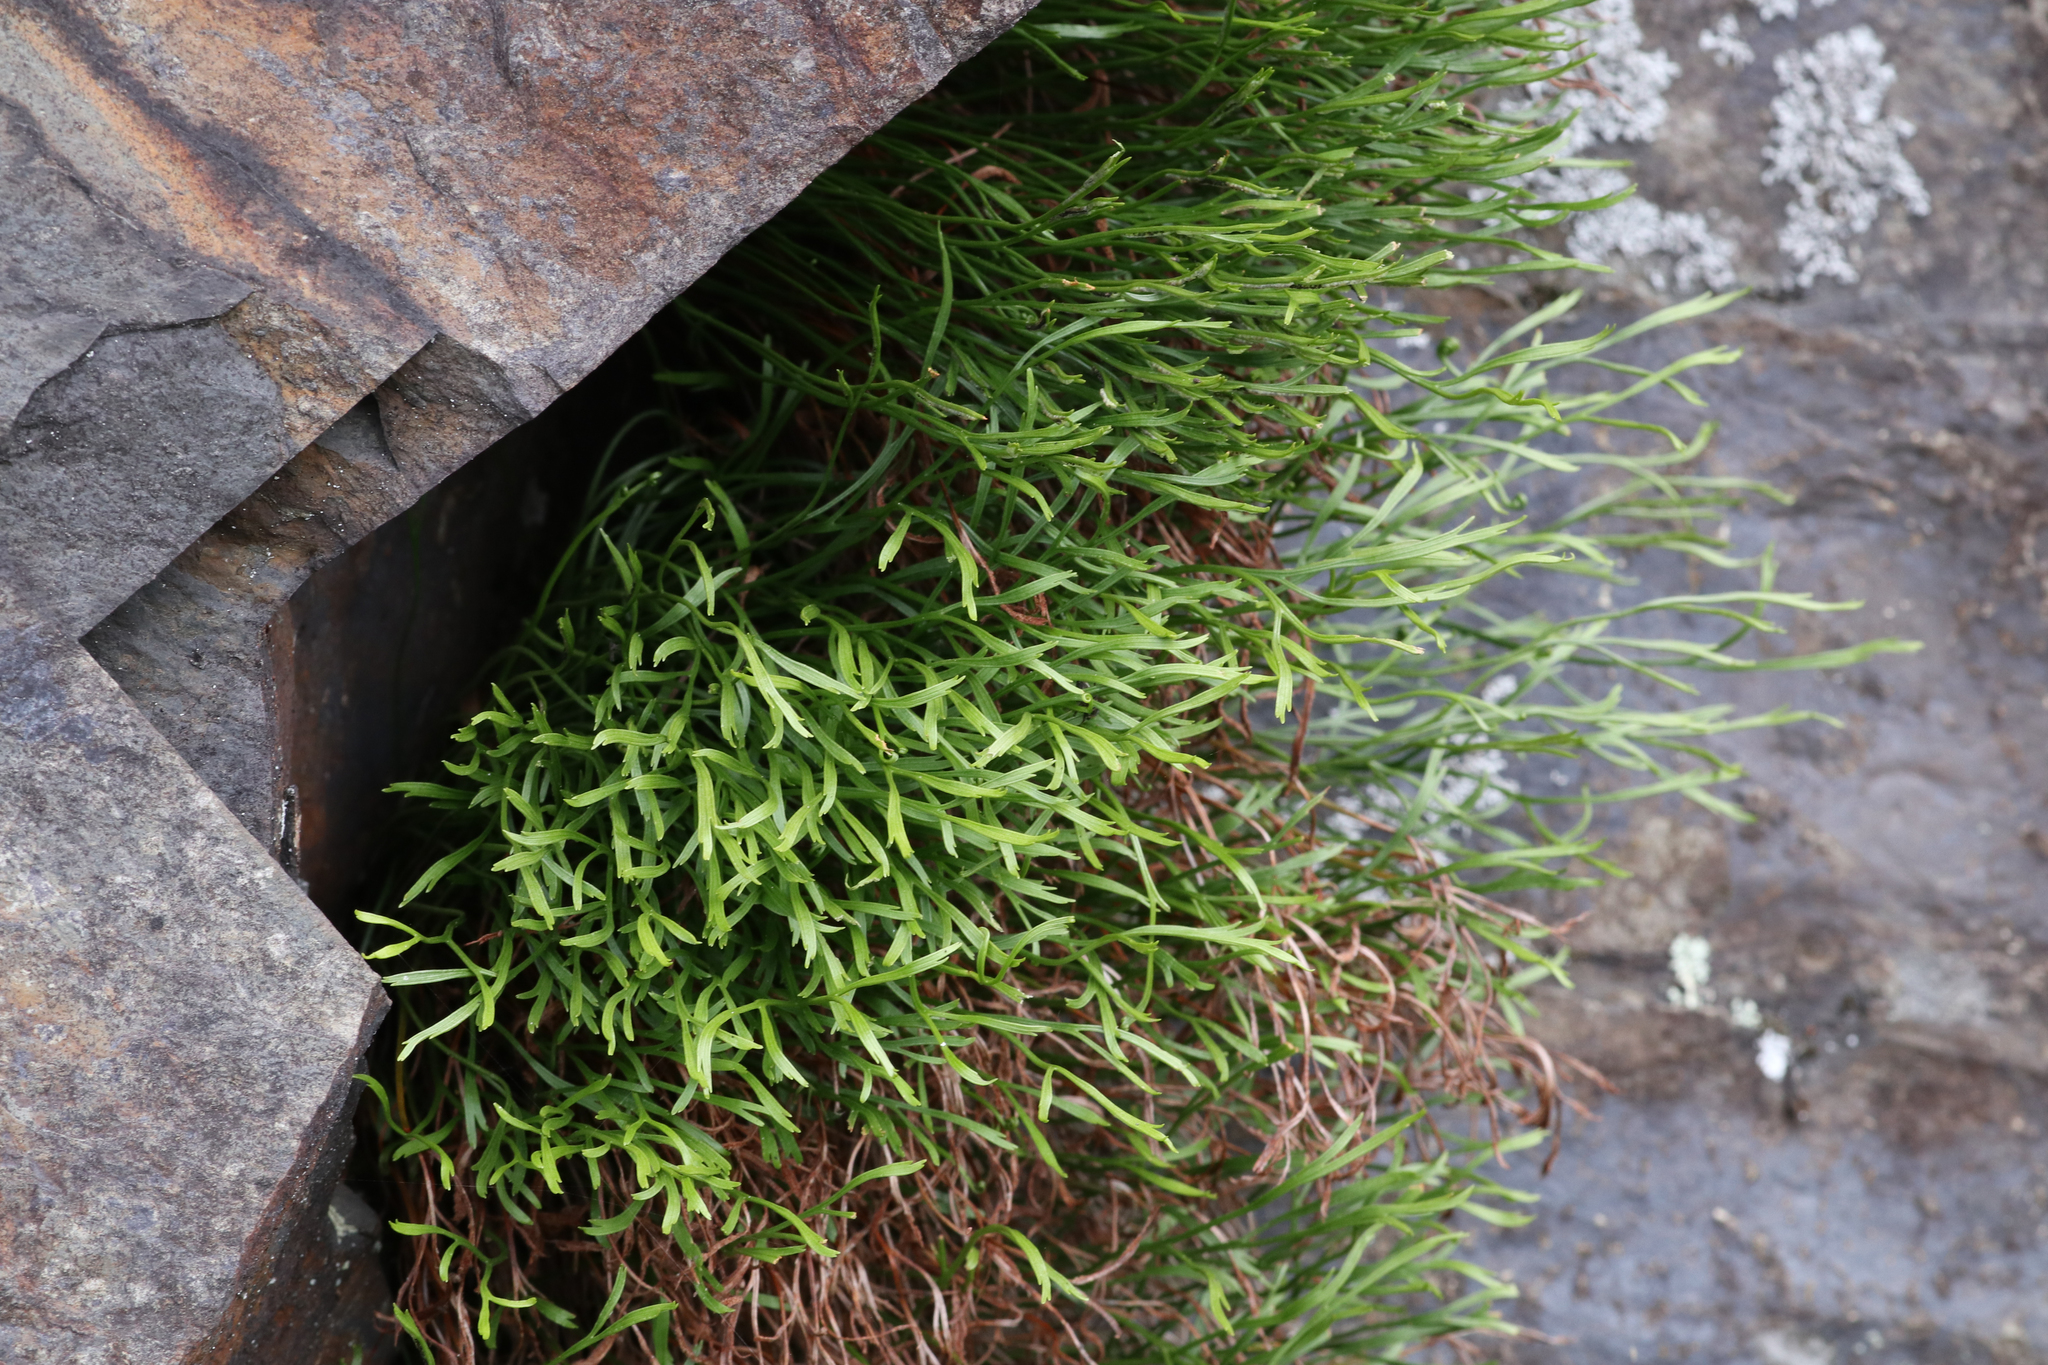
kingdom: Plantae
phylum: Tracheophyta
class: Polypodiopsida
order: Polypodiales
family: Aspleniaceae
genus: Asplenium
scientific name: Asplenium septentrionale
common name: Forked spleenwort
